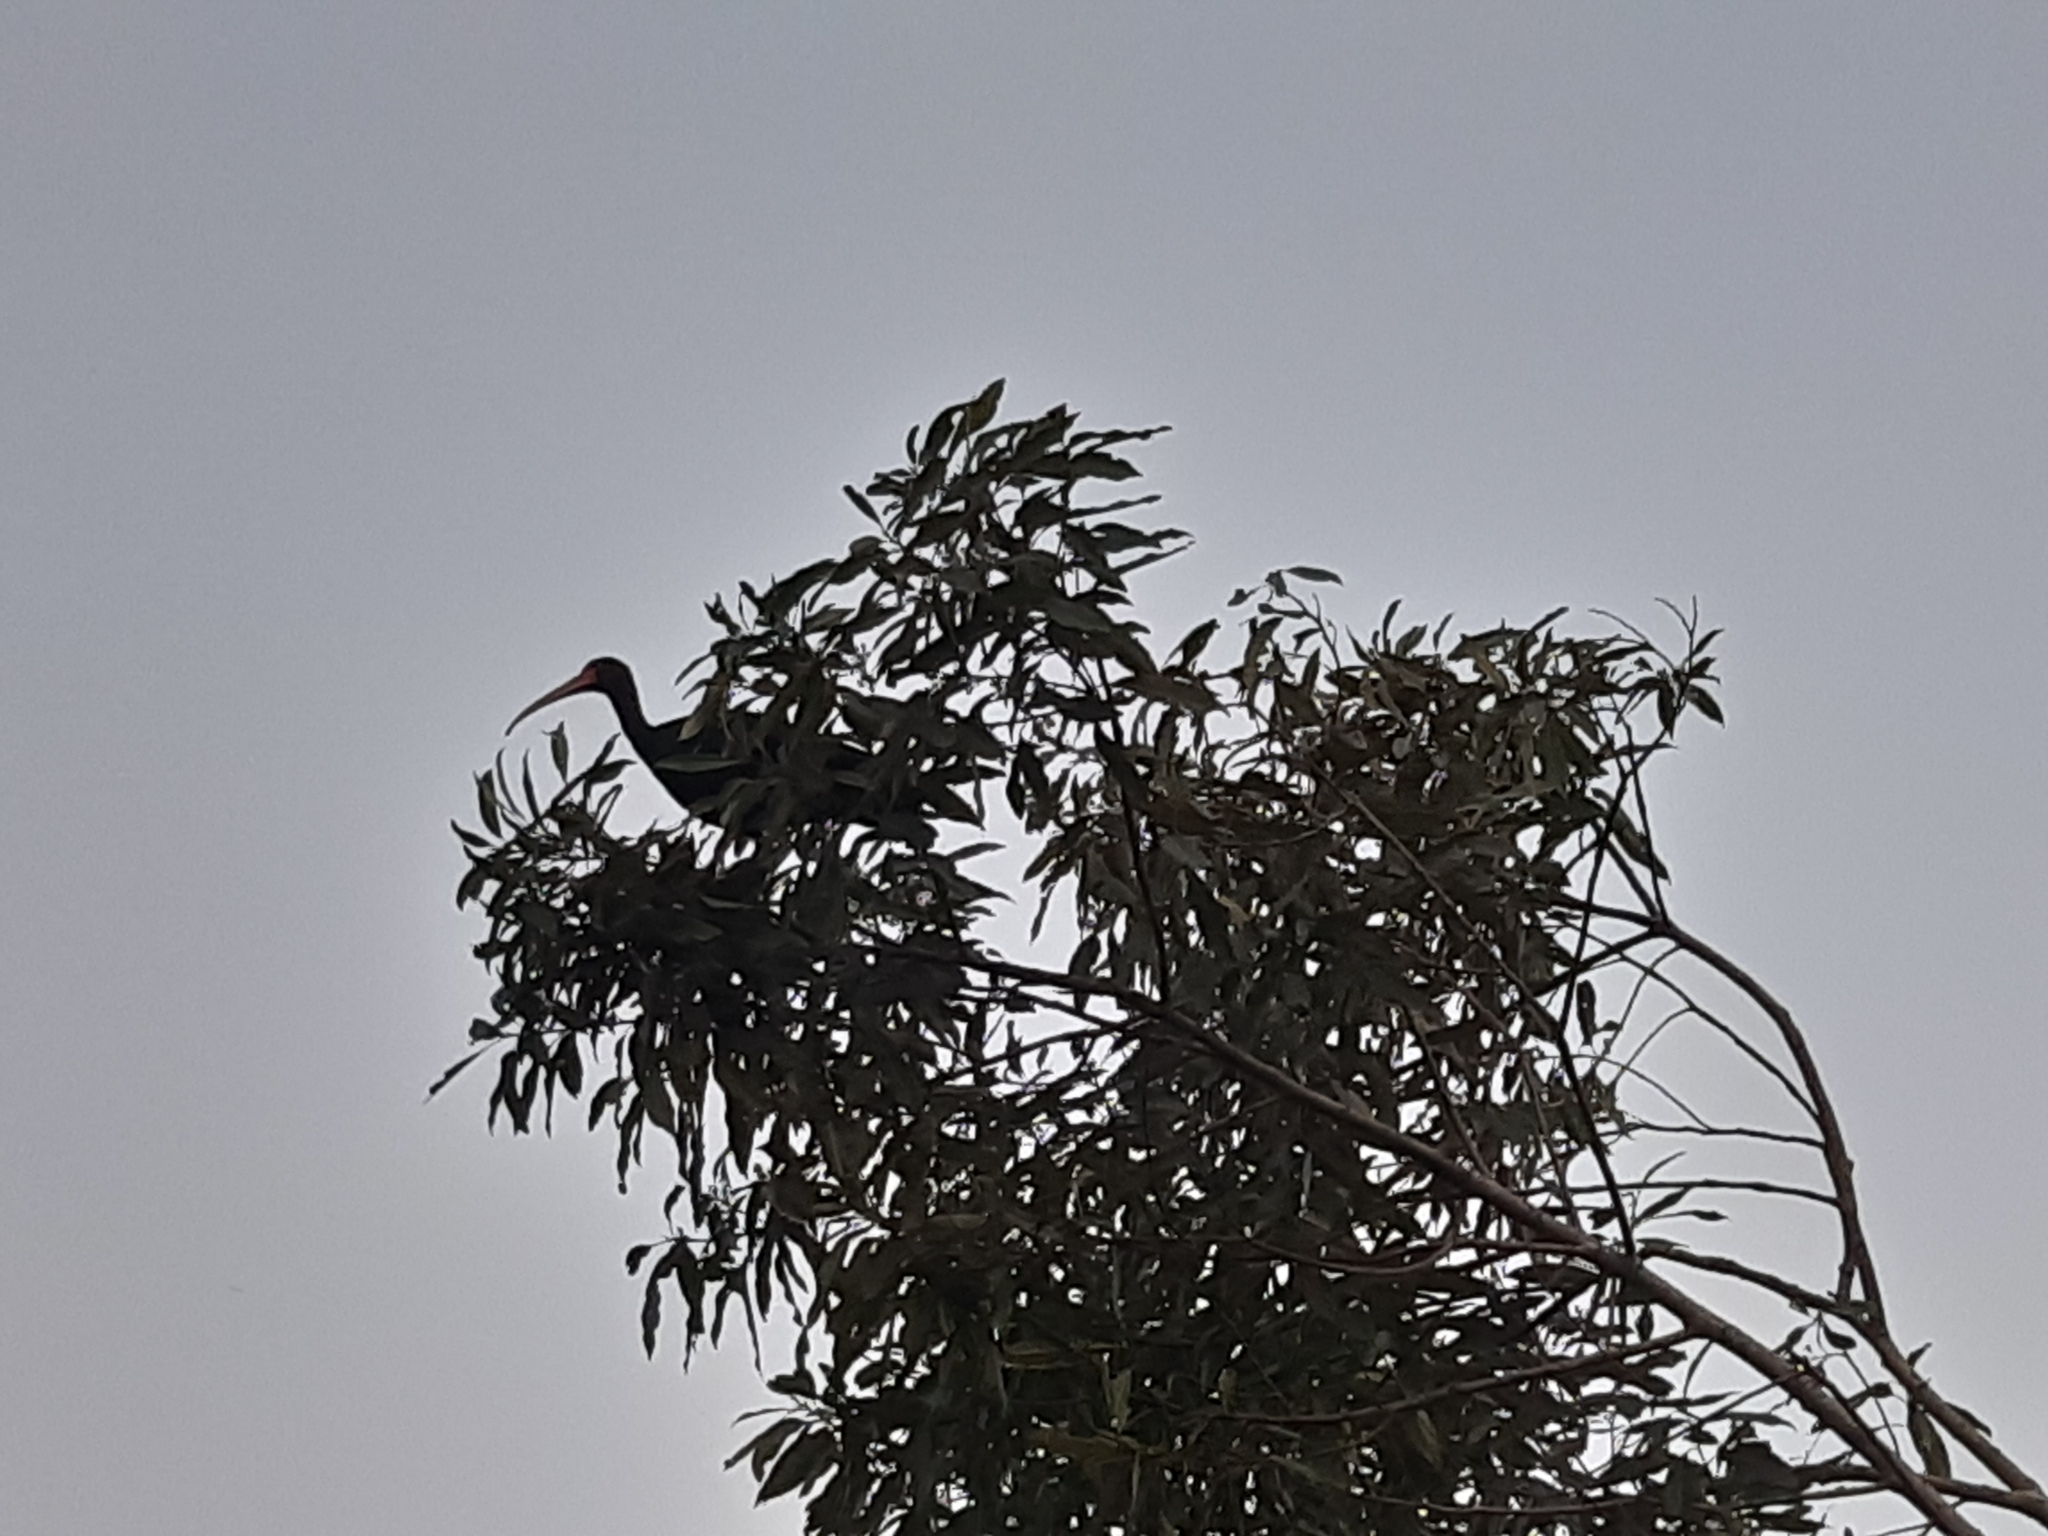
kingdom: Animalia
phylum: Chordata
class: Aves
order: Pelecaniformes
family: Threskiornithidae
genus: Phimosus
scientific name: Phimosus infuscatus
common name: Bare-faced ibis
